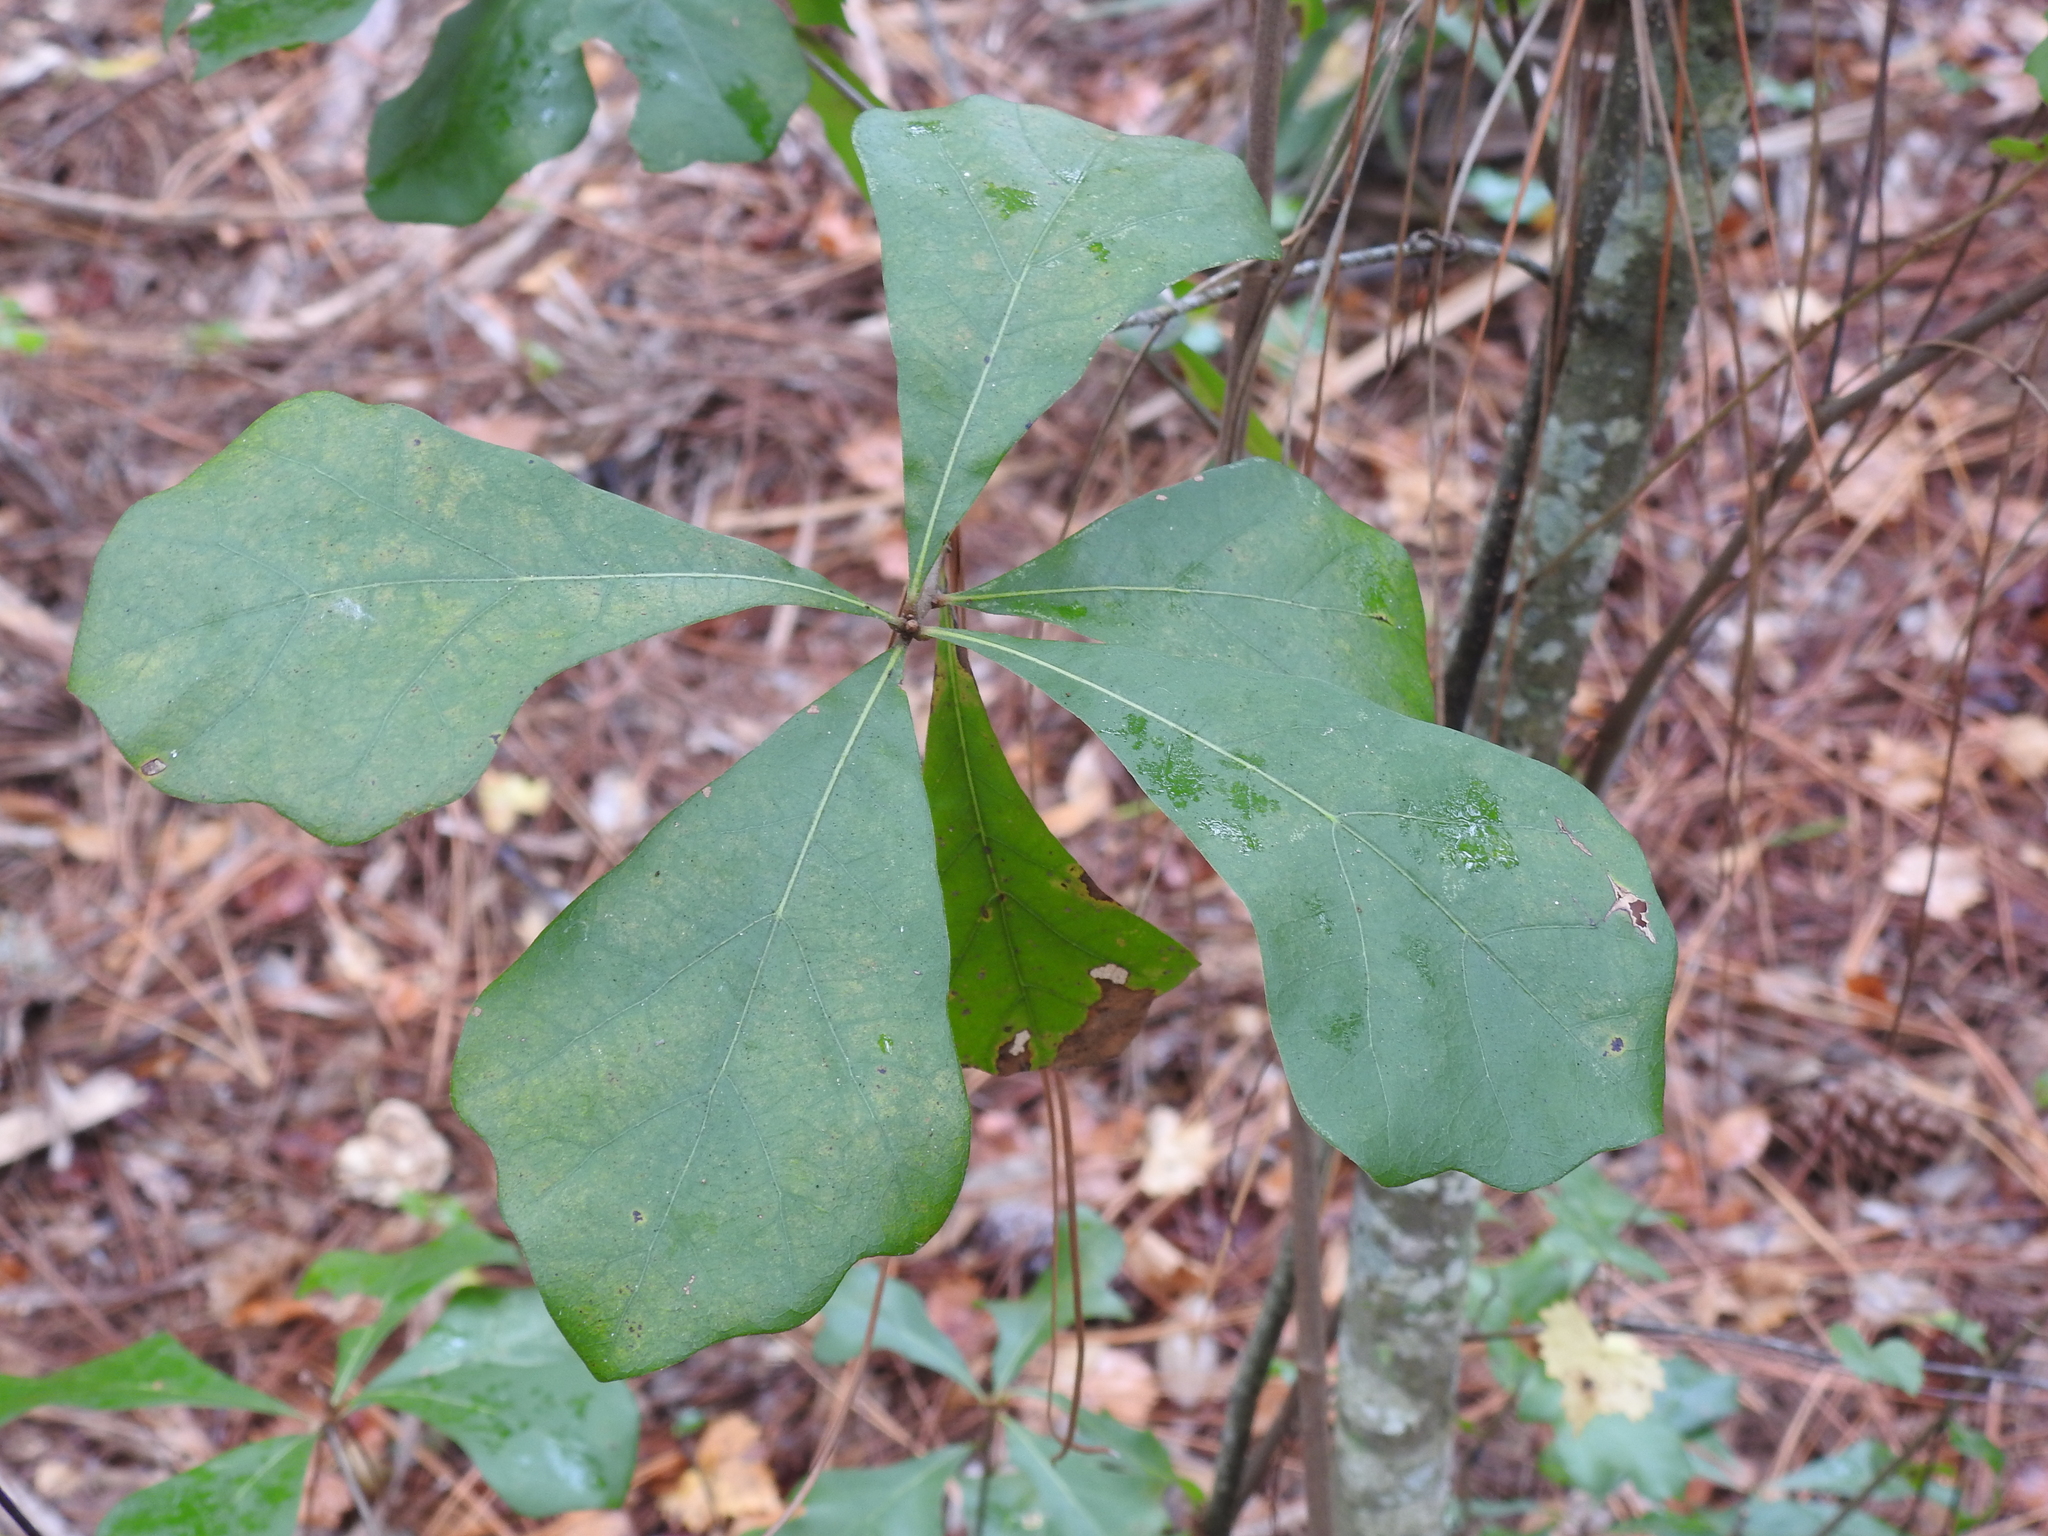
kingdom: Plantae
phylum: Tracheophyta
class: Magnoliopsida
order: Fagales
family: Fagaceae
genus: Quercus
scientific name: Quercus nigra
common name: Water oak
